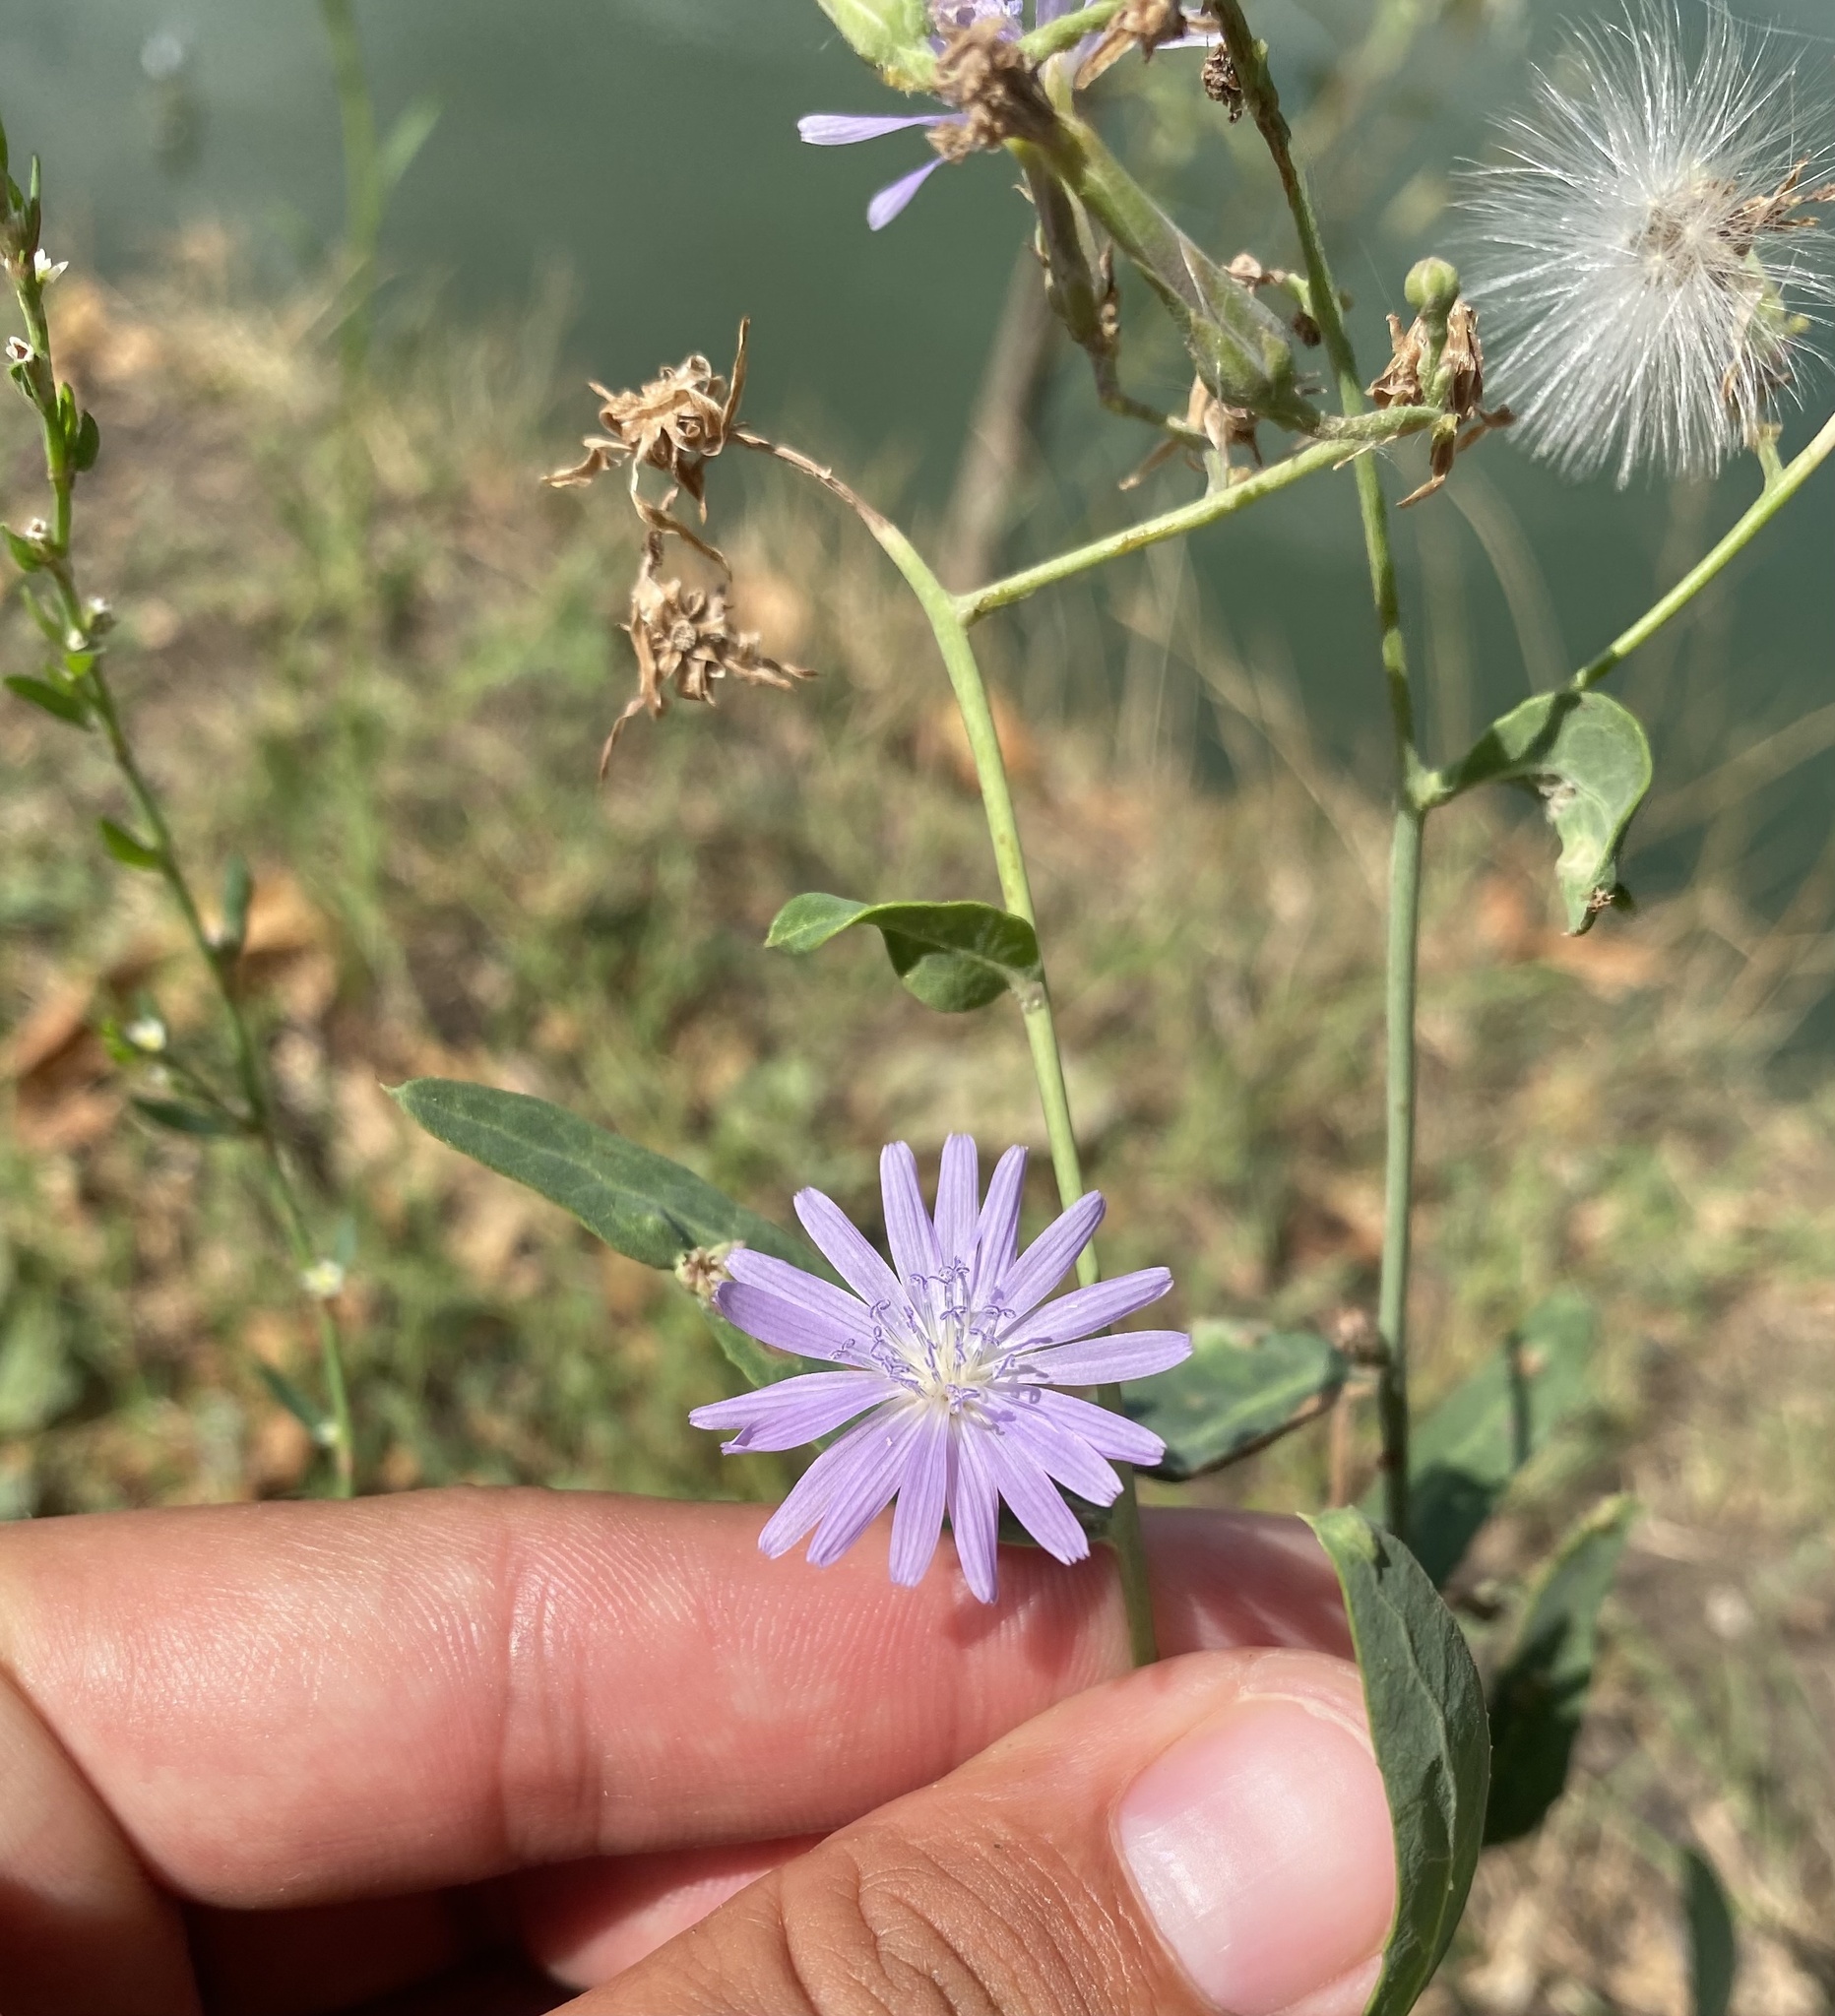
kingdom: Plantae
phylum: Tracheophyta
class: Magnoliopsida
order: Asterales
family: Asteraceae
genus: Lactuca
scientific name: Lactuca tatarica
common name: Blue lettuce
